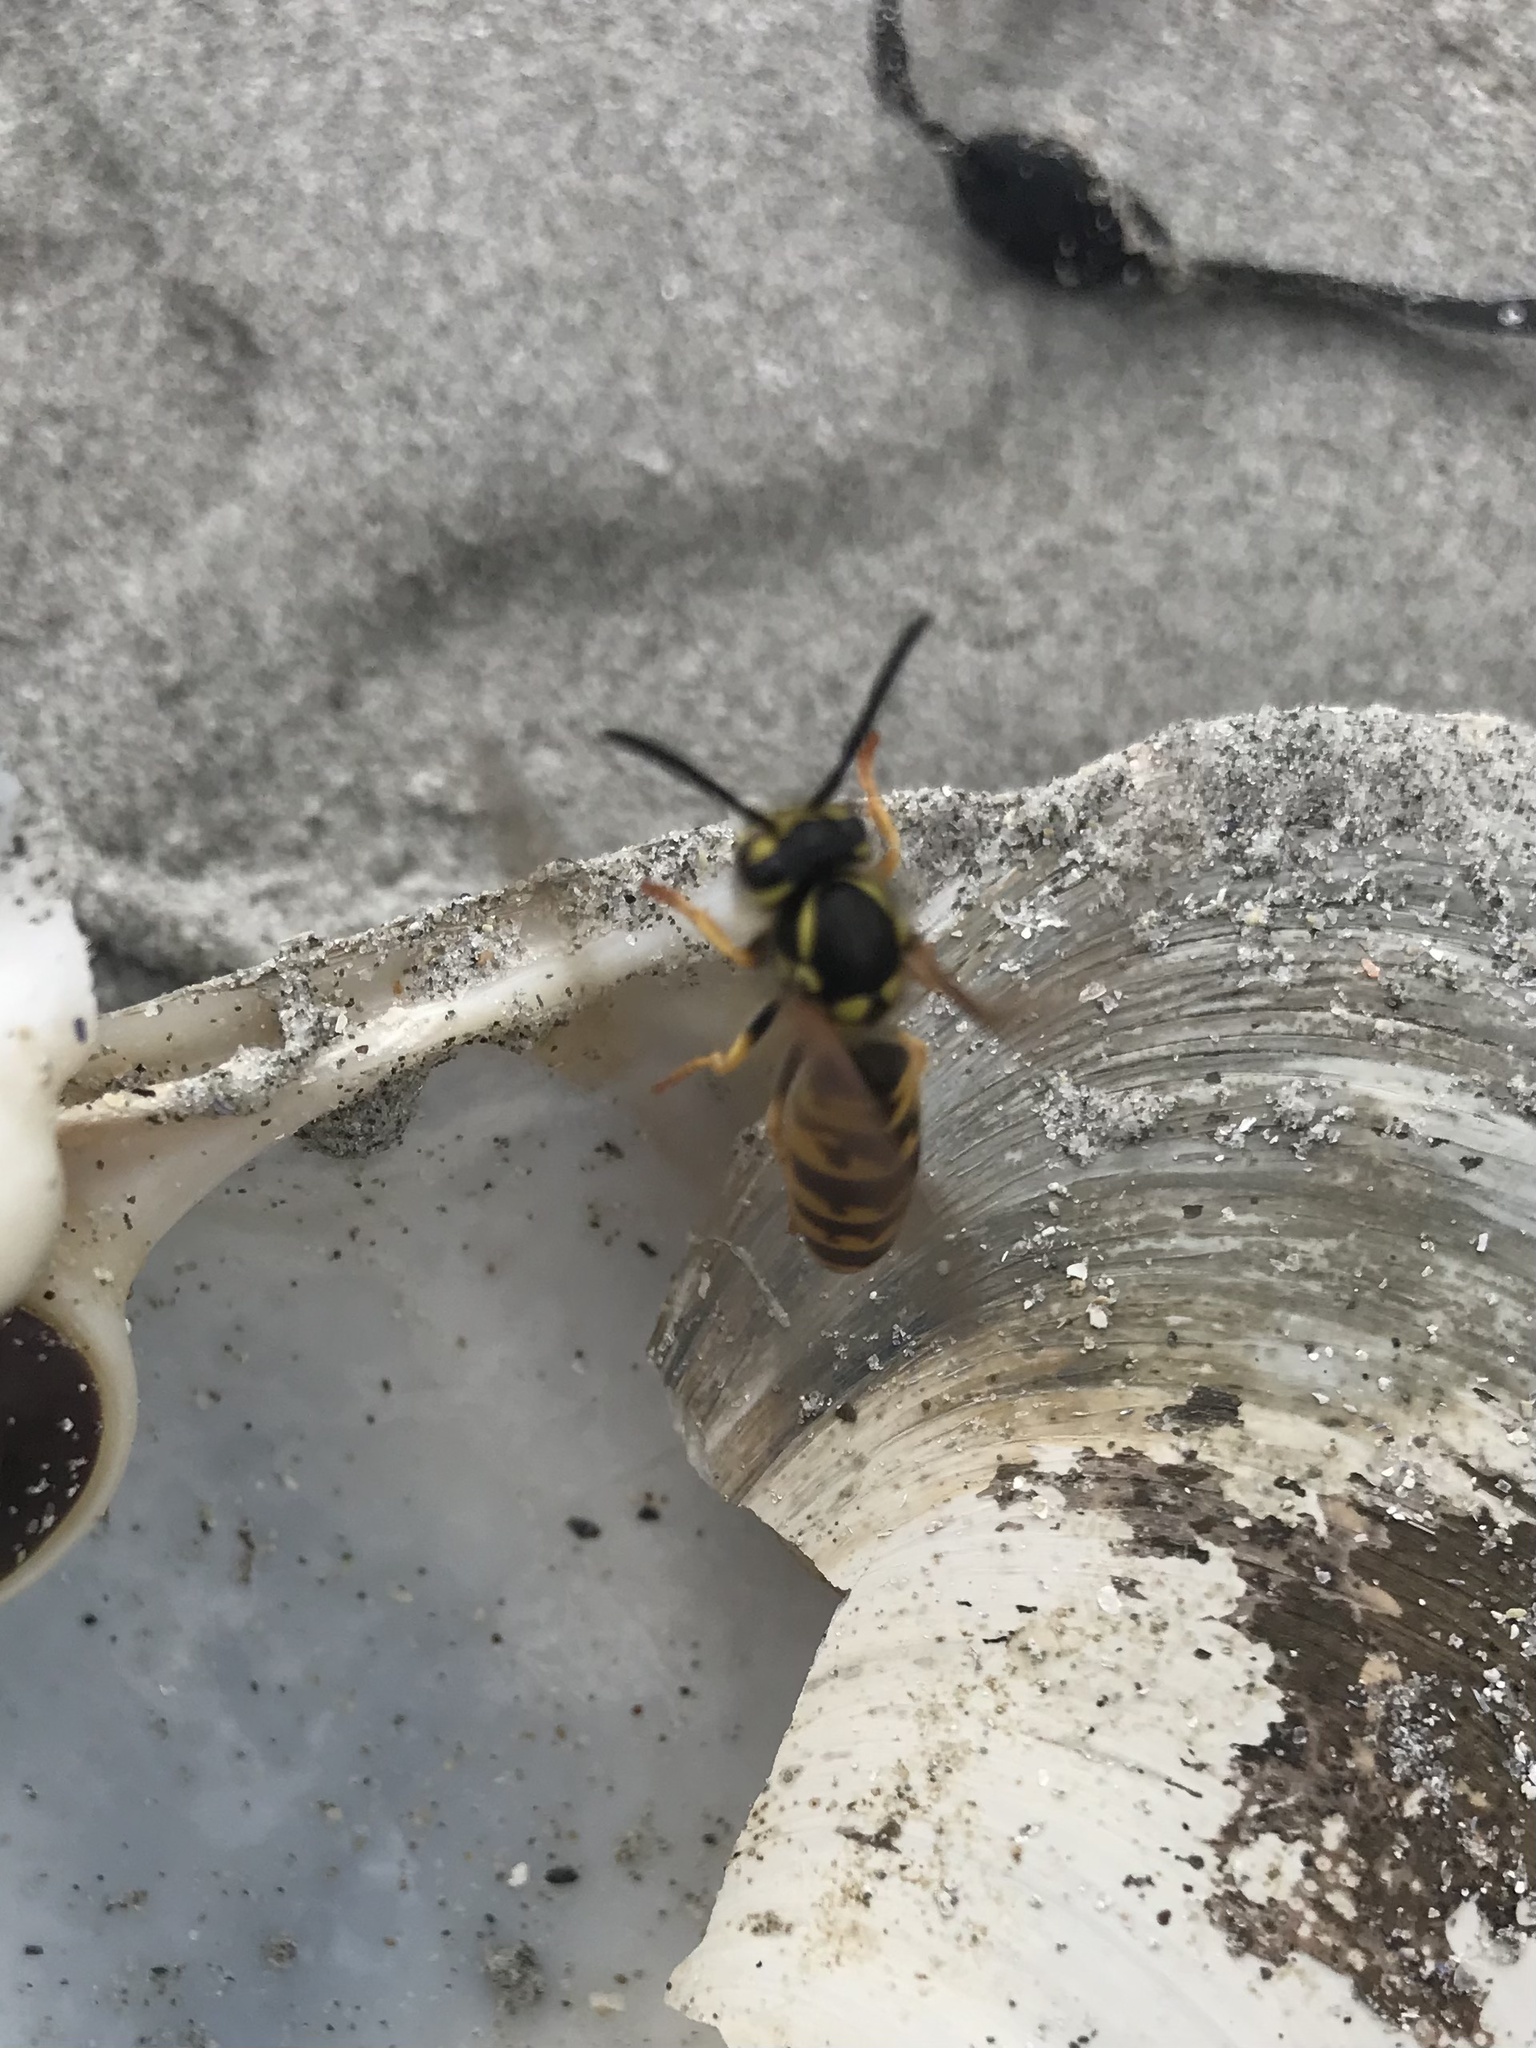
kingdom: Animalia
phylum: Arthropoda
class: Insecta
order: Hymenoptera
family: Vespidae
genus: Vespula
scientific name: Vespula germanica
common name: German wasp
